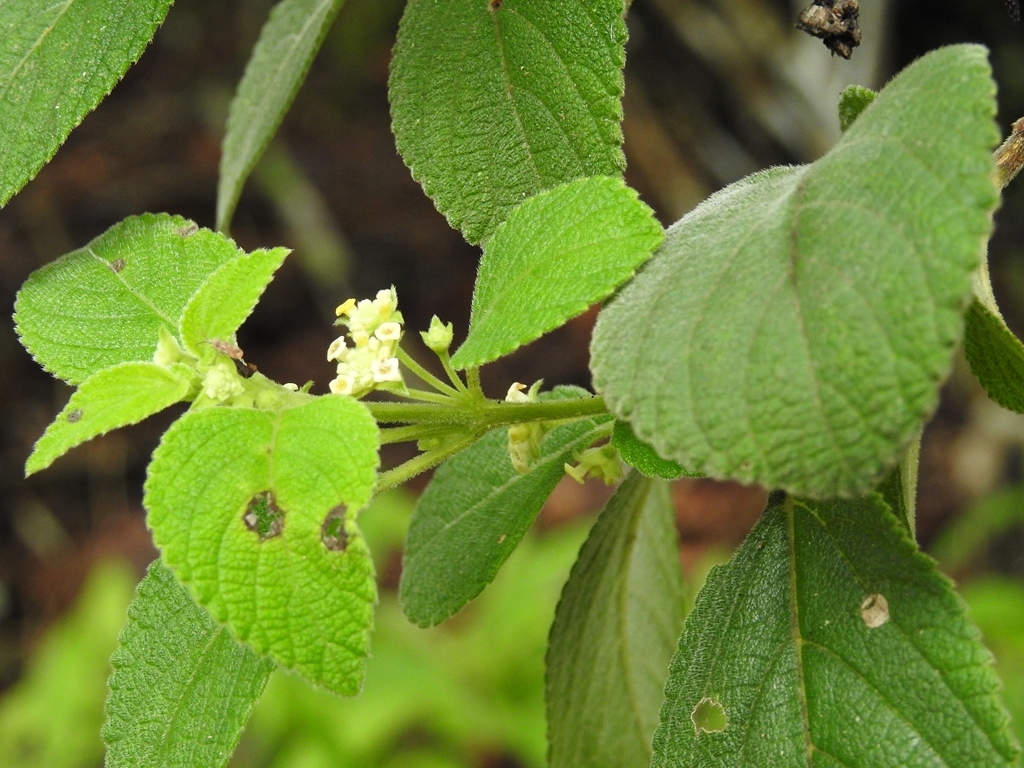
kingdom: Plantae
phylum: Tracheophyta
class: Magnoliopsida
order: Lamiales
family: Verbenaceae
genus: Lippia
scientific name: Lippia umbellata
